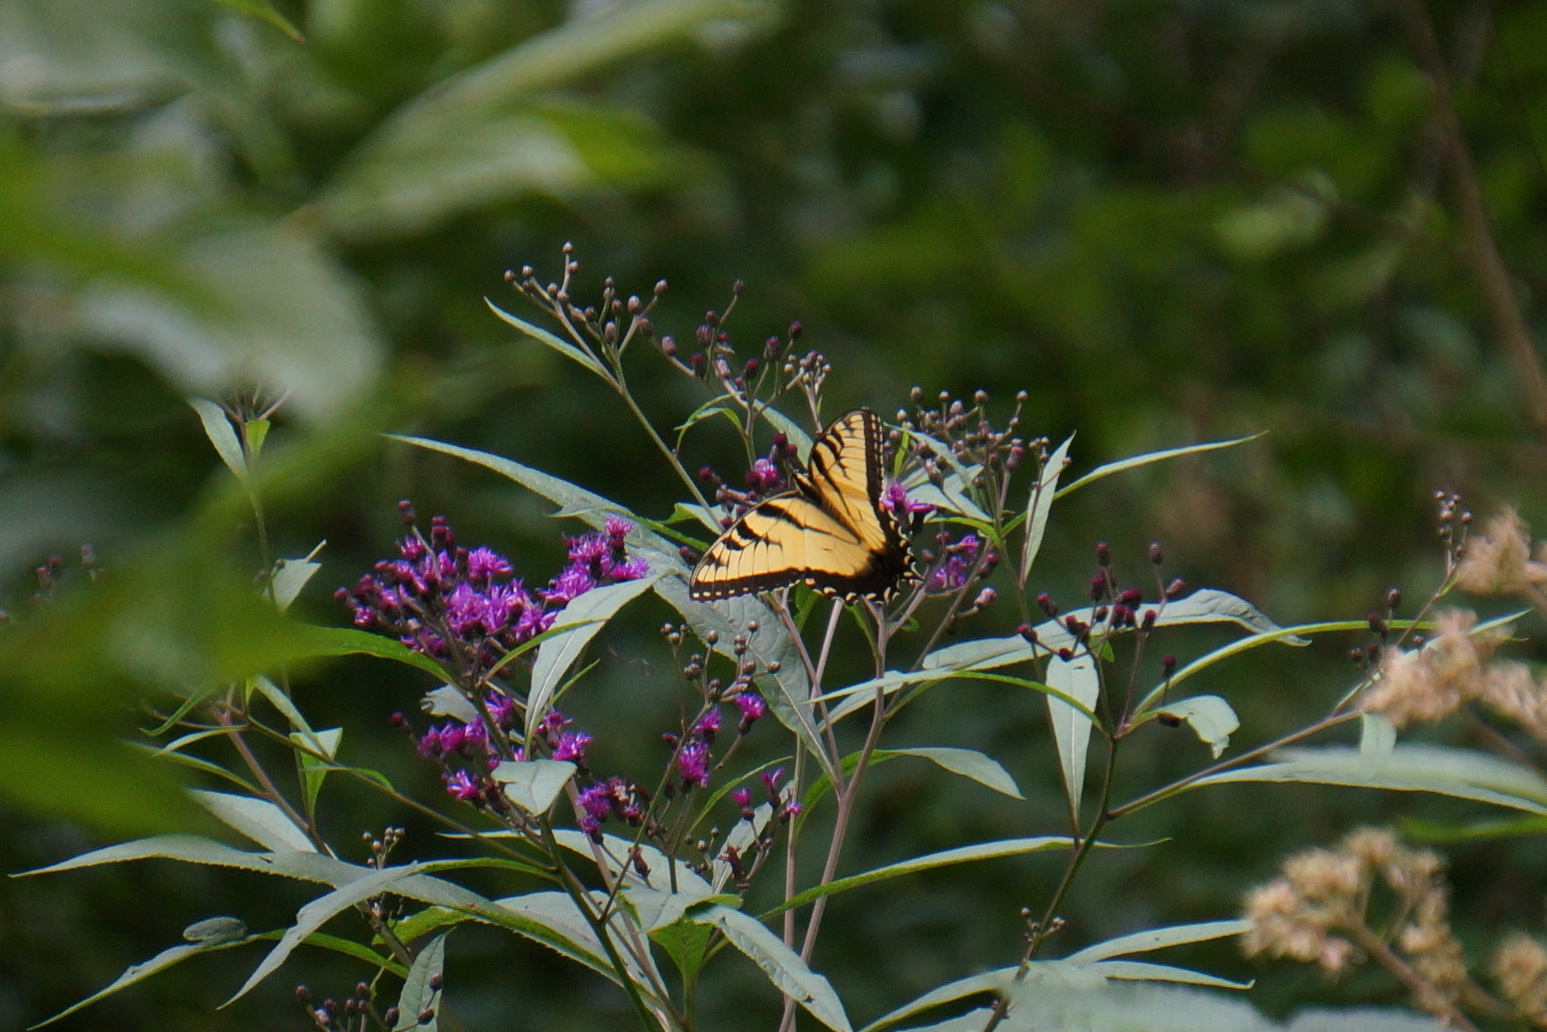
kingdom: Animalia
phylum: Arthropoda
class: Insecta
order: Lepidoptera
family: Papilionidae
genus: Papilio
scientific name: Papilio glaucus
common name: Tiger swallowtail
